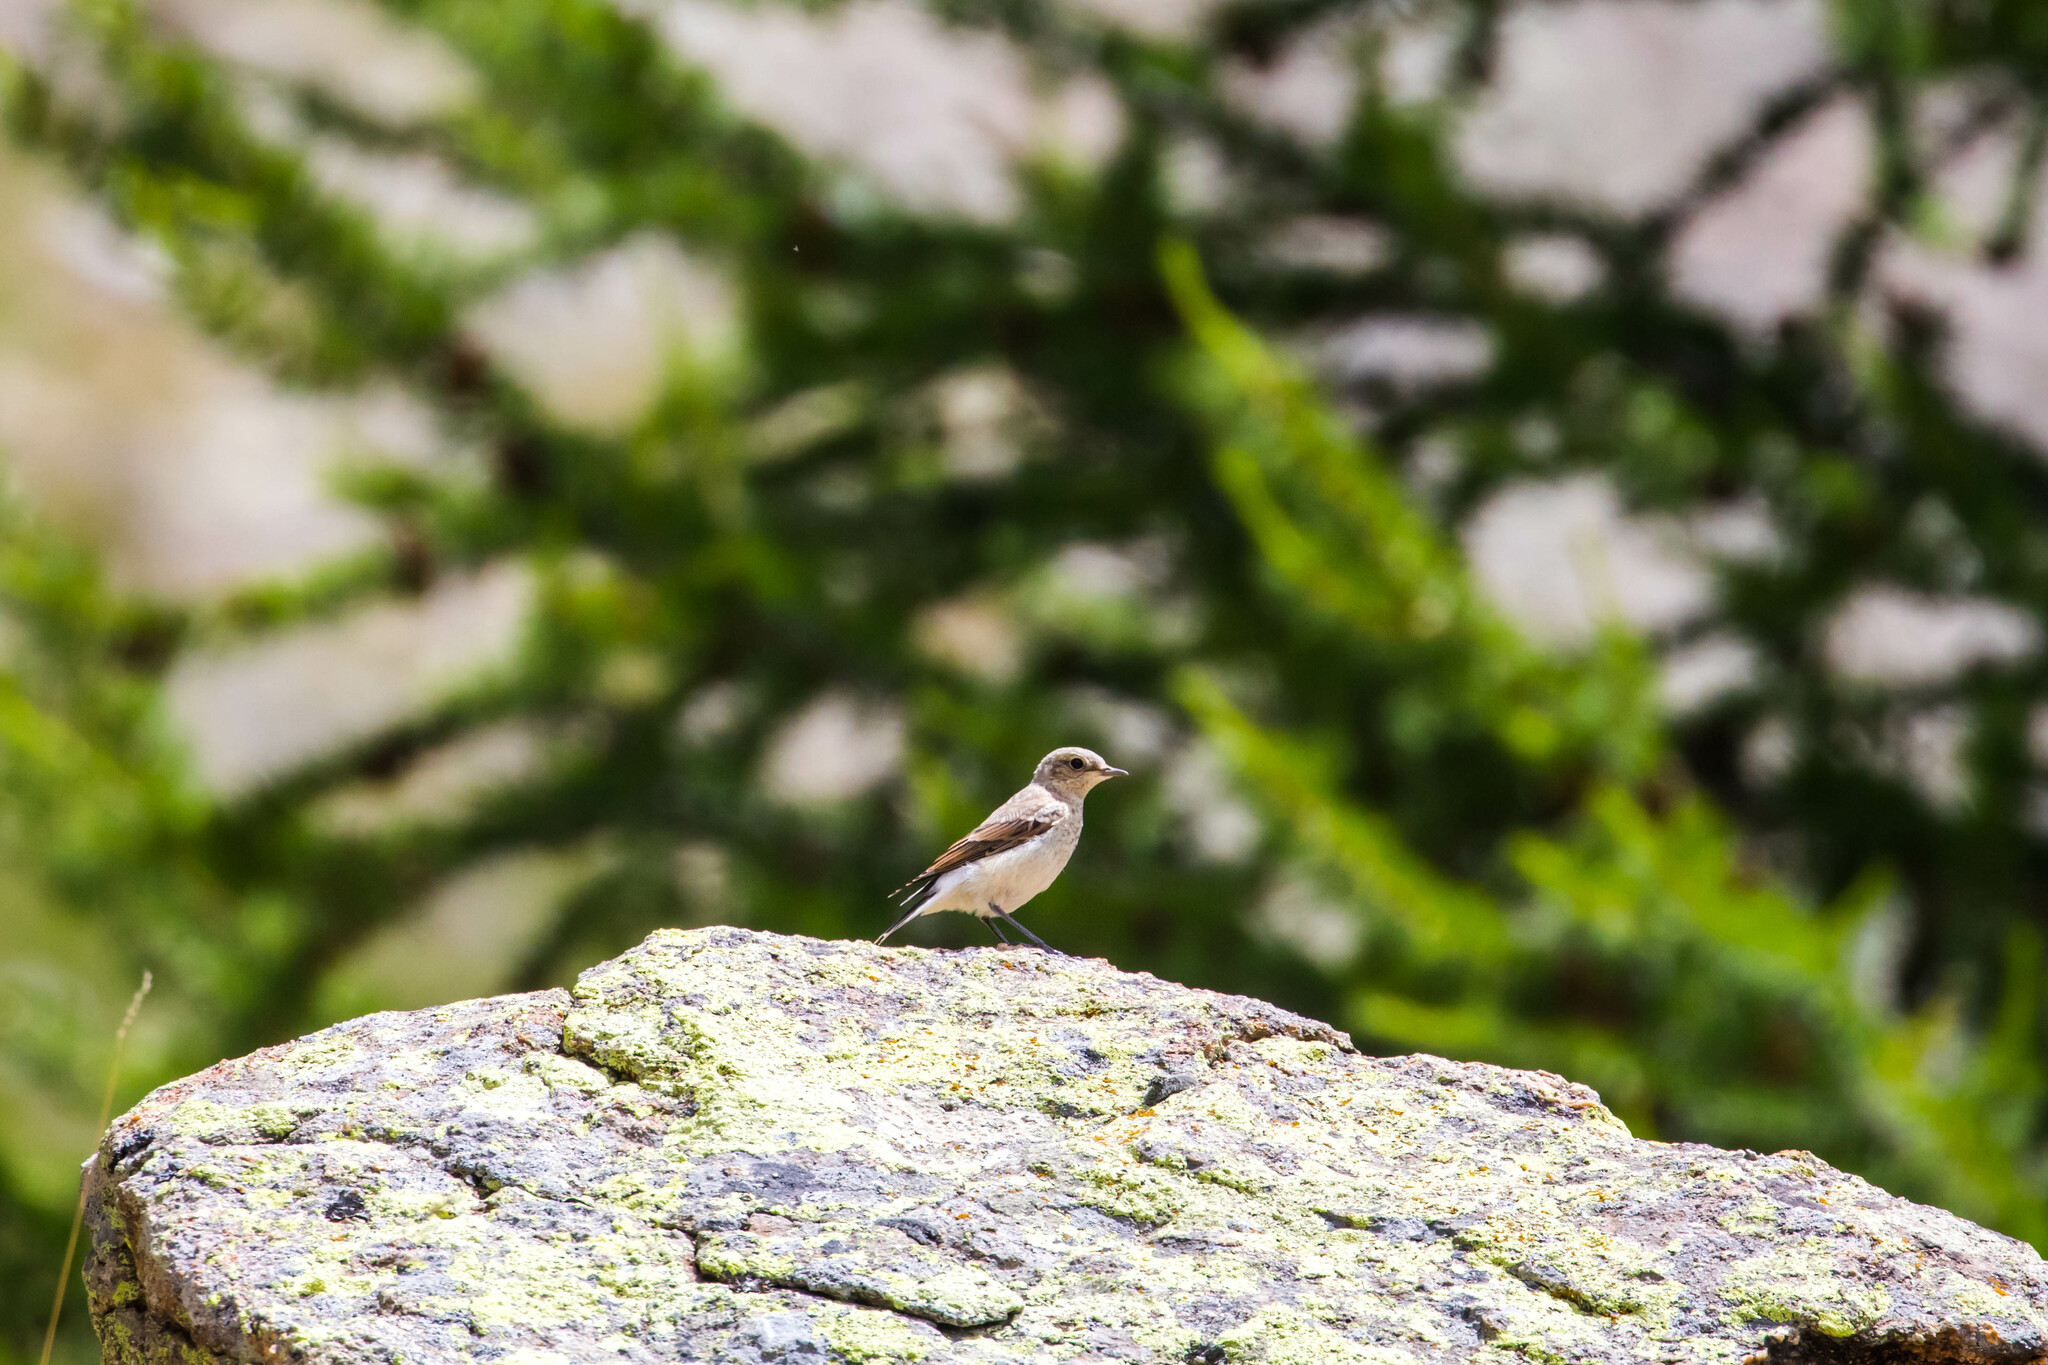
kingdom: Animalia
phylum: Chordata
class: Aves
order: Passeriformes
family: Muscicapidae
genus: Oenanthe
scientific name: Oenanthe oenanthe
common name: Northern wheatear
